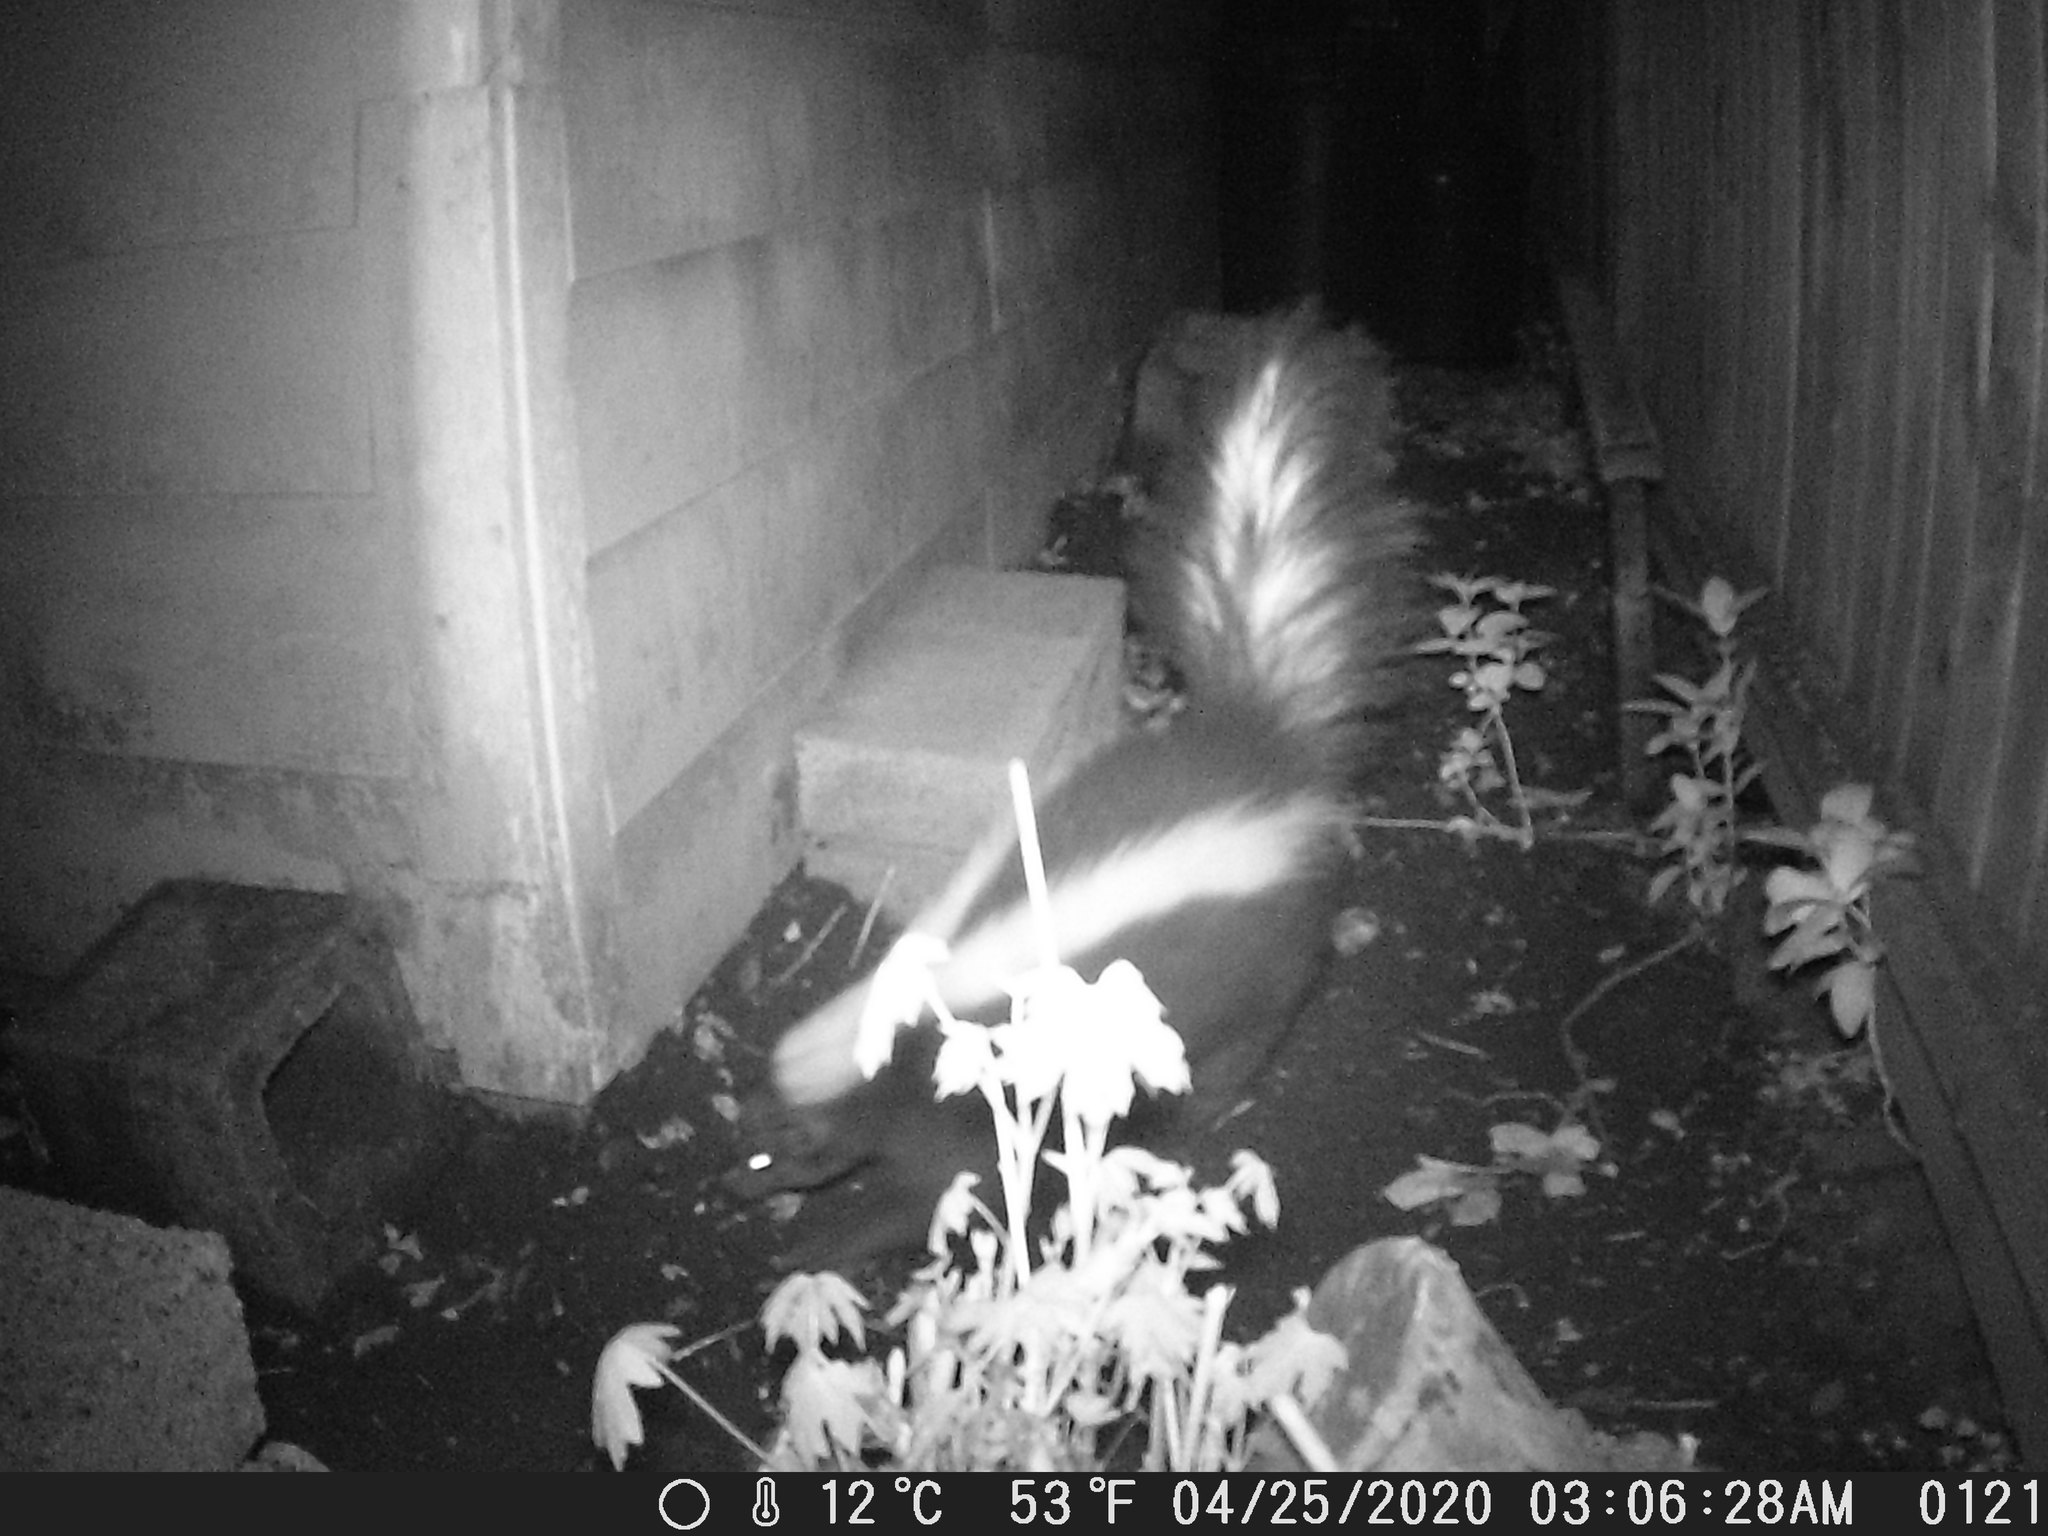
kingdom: Animalia
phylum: Chordata
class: Mammalia
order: Carnivora
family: Mephitidae
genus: Mephitis
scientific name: Mephitis mephitis
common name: Striped skunk
